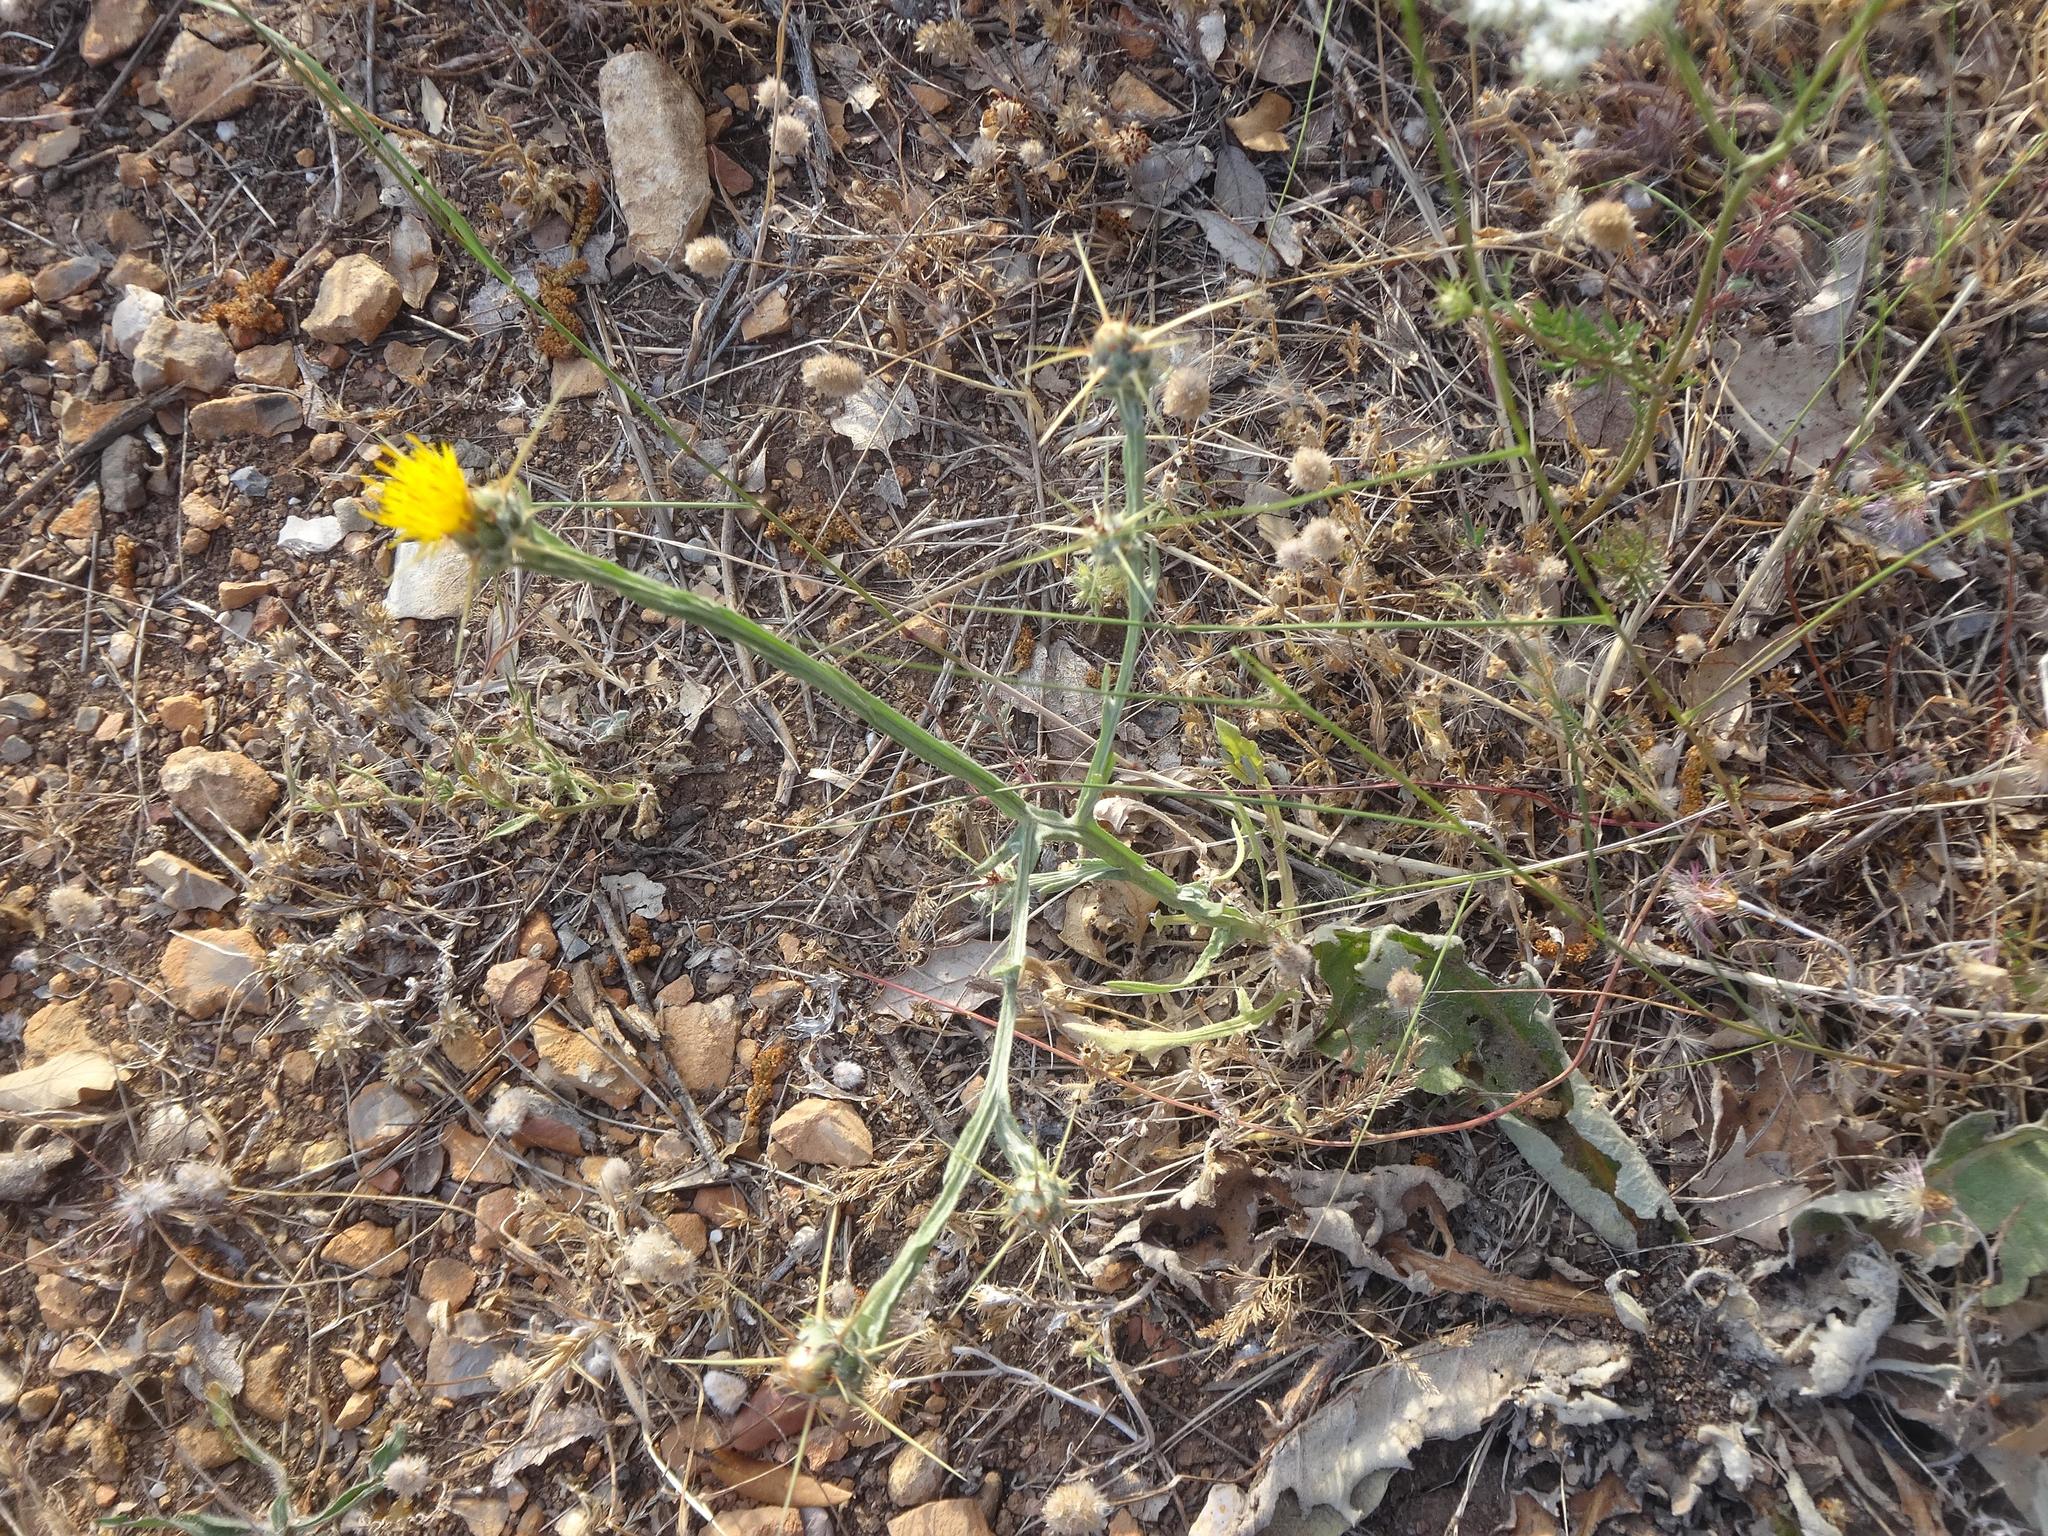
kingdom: Plantae
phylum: Tracheophyta
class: Magnoliopsida
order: Asterales
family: Asteraceae
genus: Centaurea
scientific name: Centaurea solstitialis
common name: Yellow star-thistle
